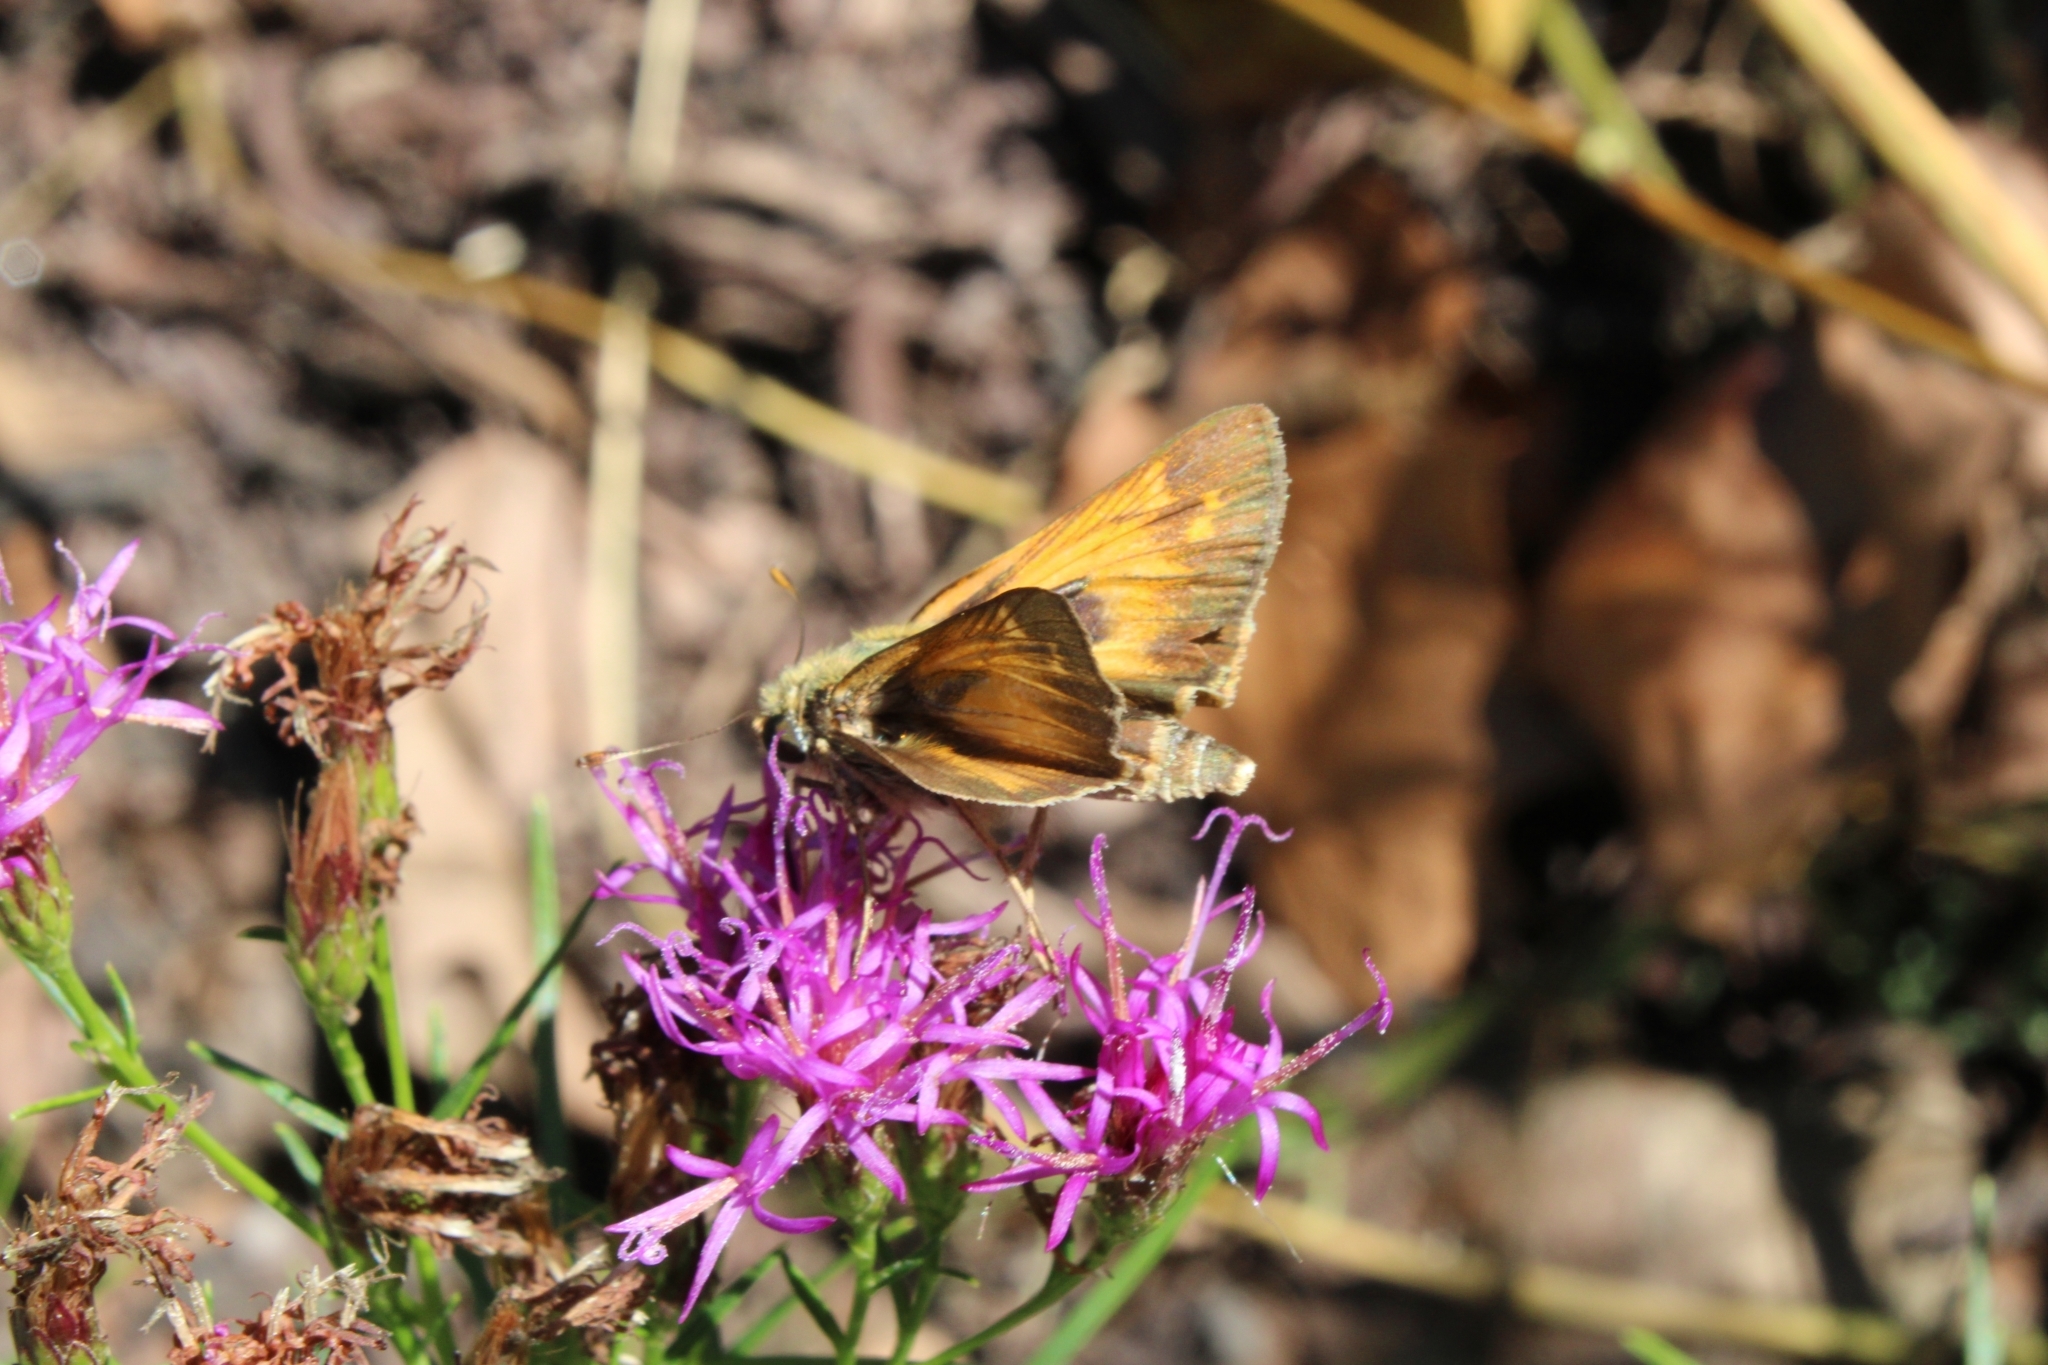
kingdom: Animalia
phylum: Arthropoda
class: Insecta
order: Lepidoptera
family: Hesperiidae
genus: Atalopedes
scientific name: Atalopedes
